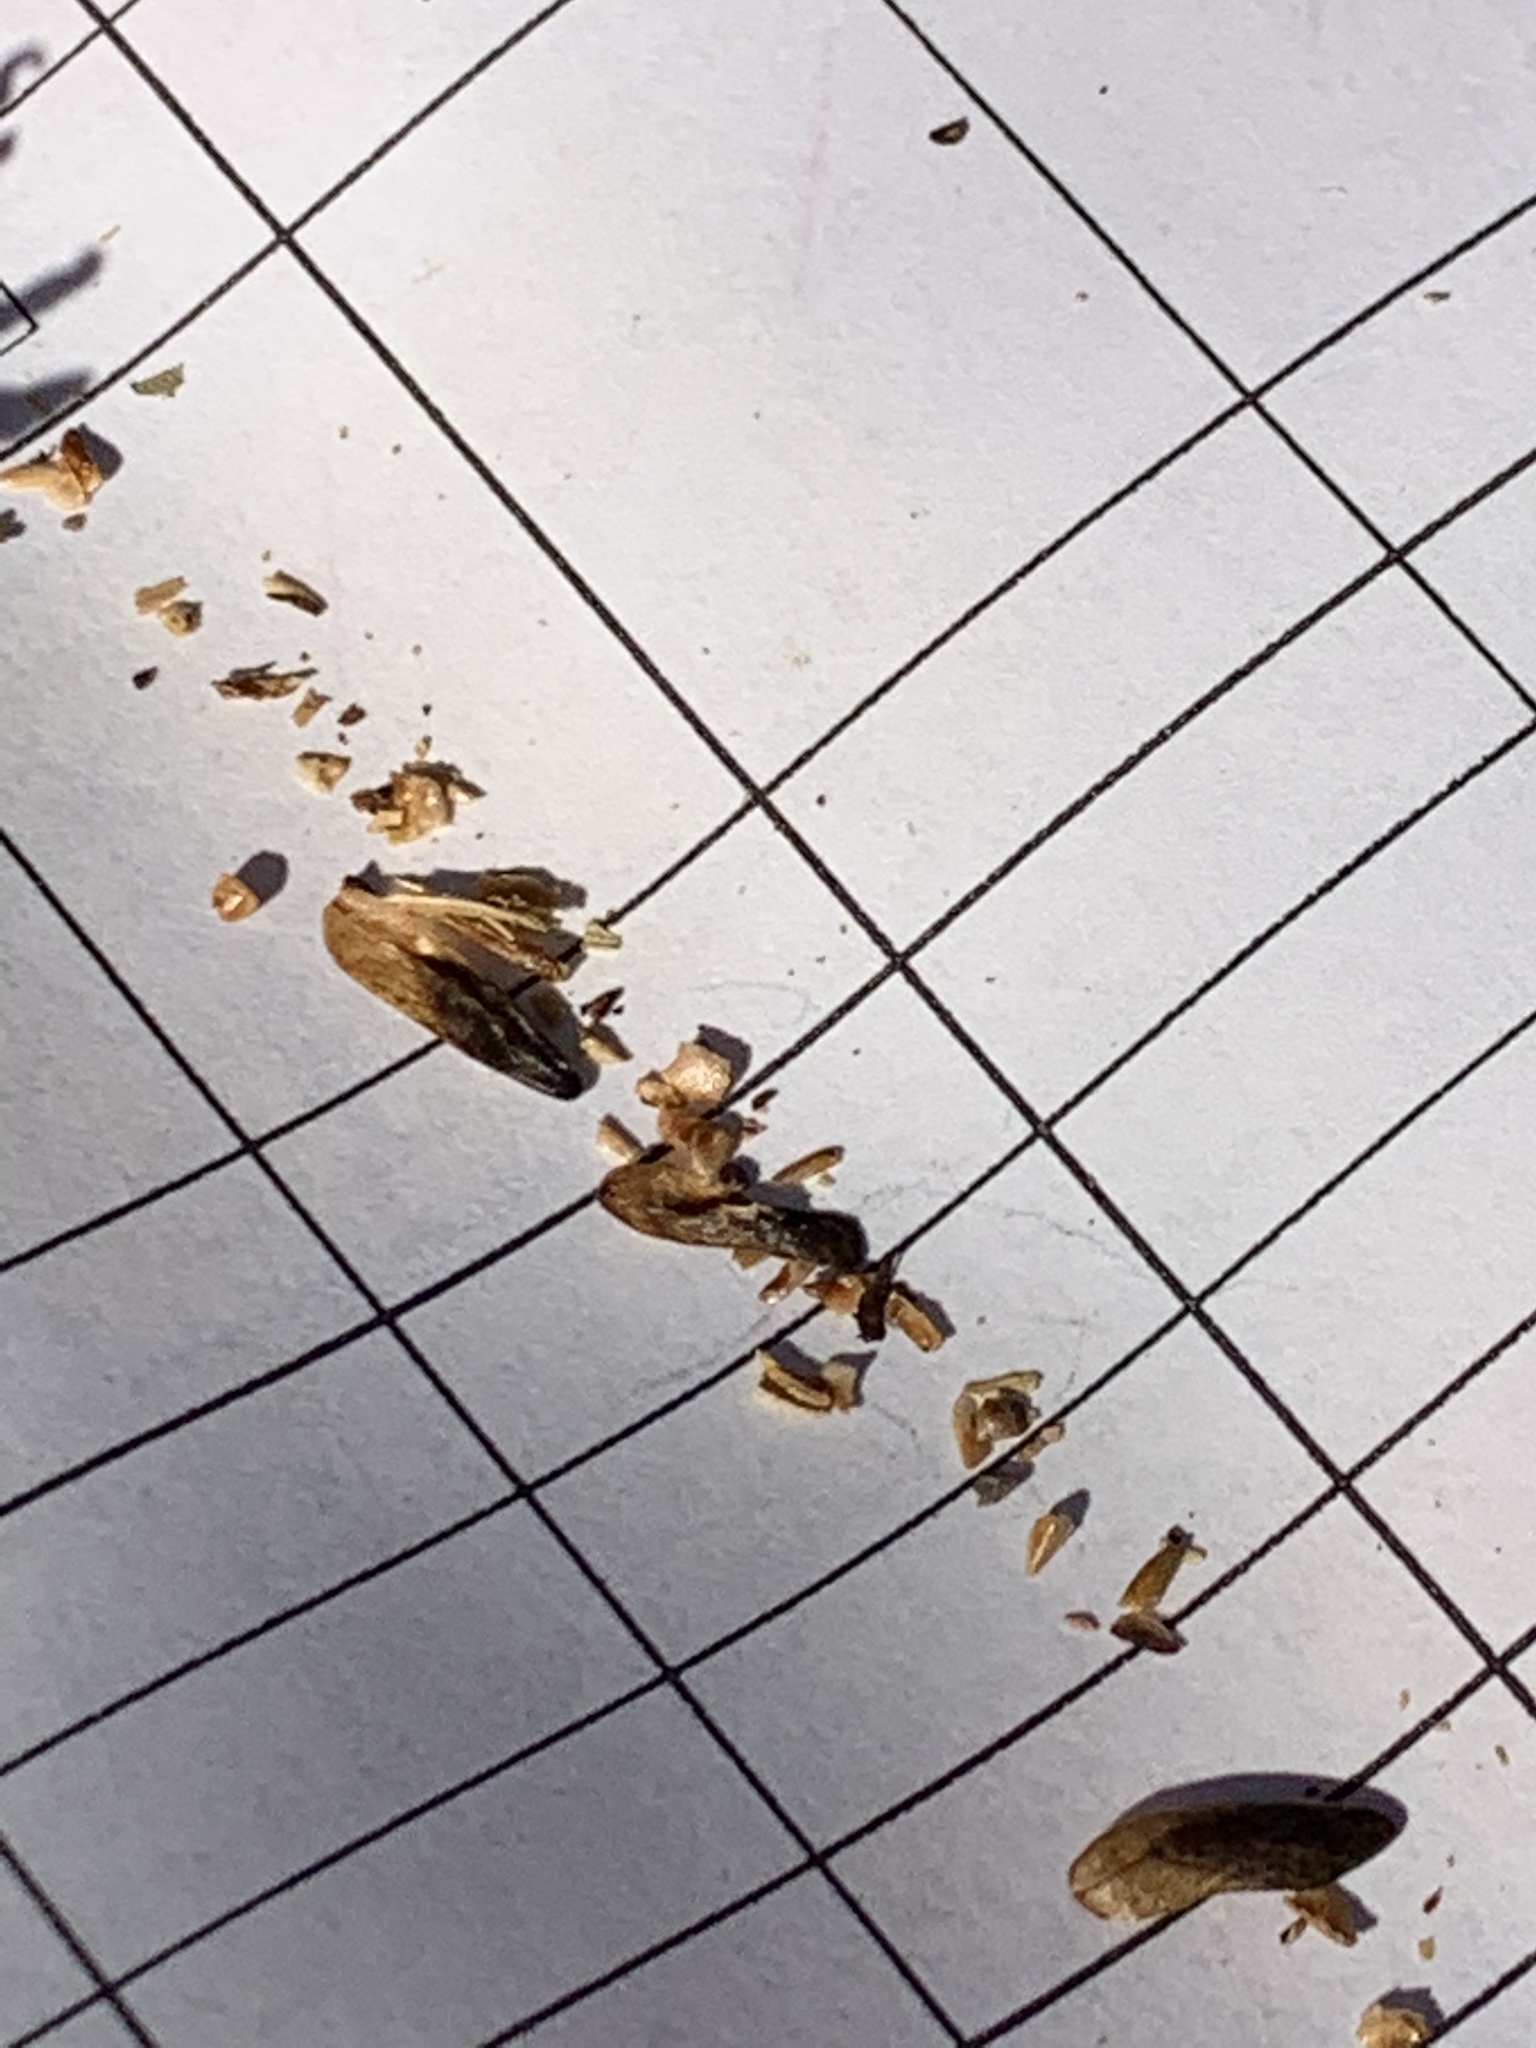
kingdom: Plantae
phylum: Tracheophyta
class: Magnoliopsida
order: Saxifragales
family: Altingiaceae
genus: Liquidambar
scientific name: Liquidambar styraciflua
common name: Sweet gum
